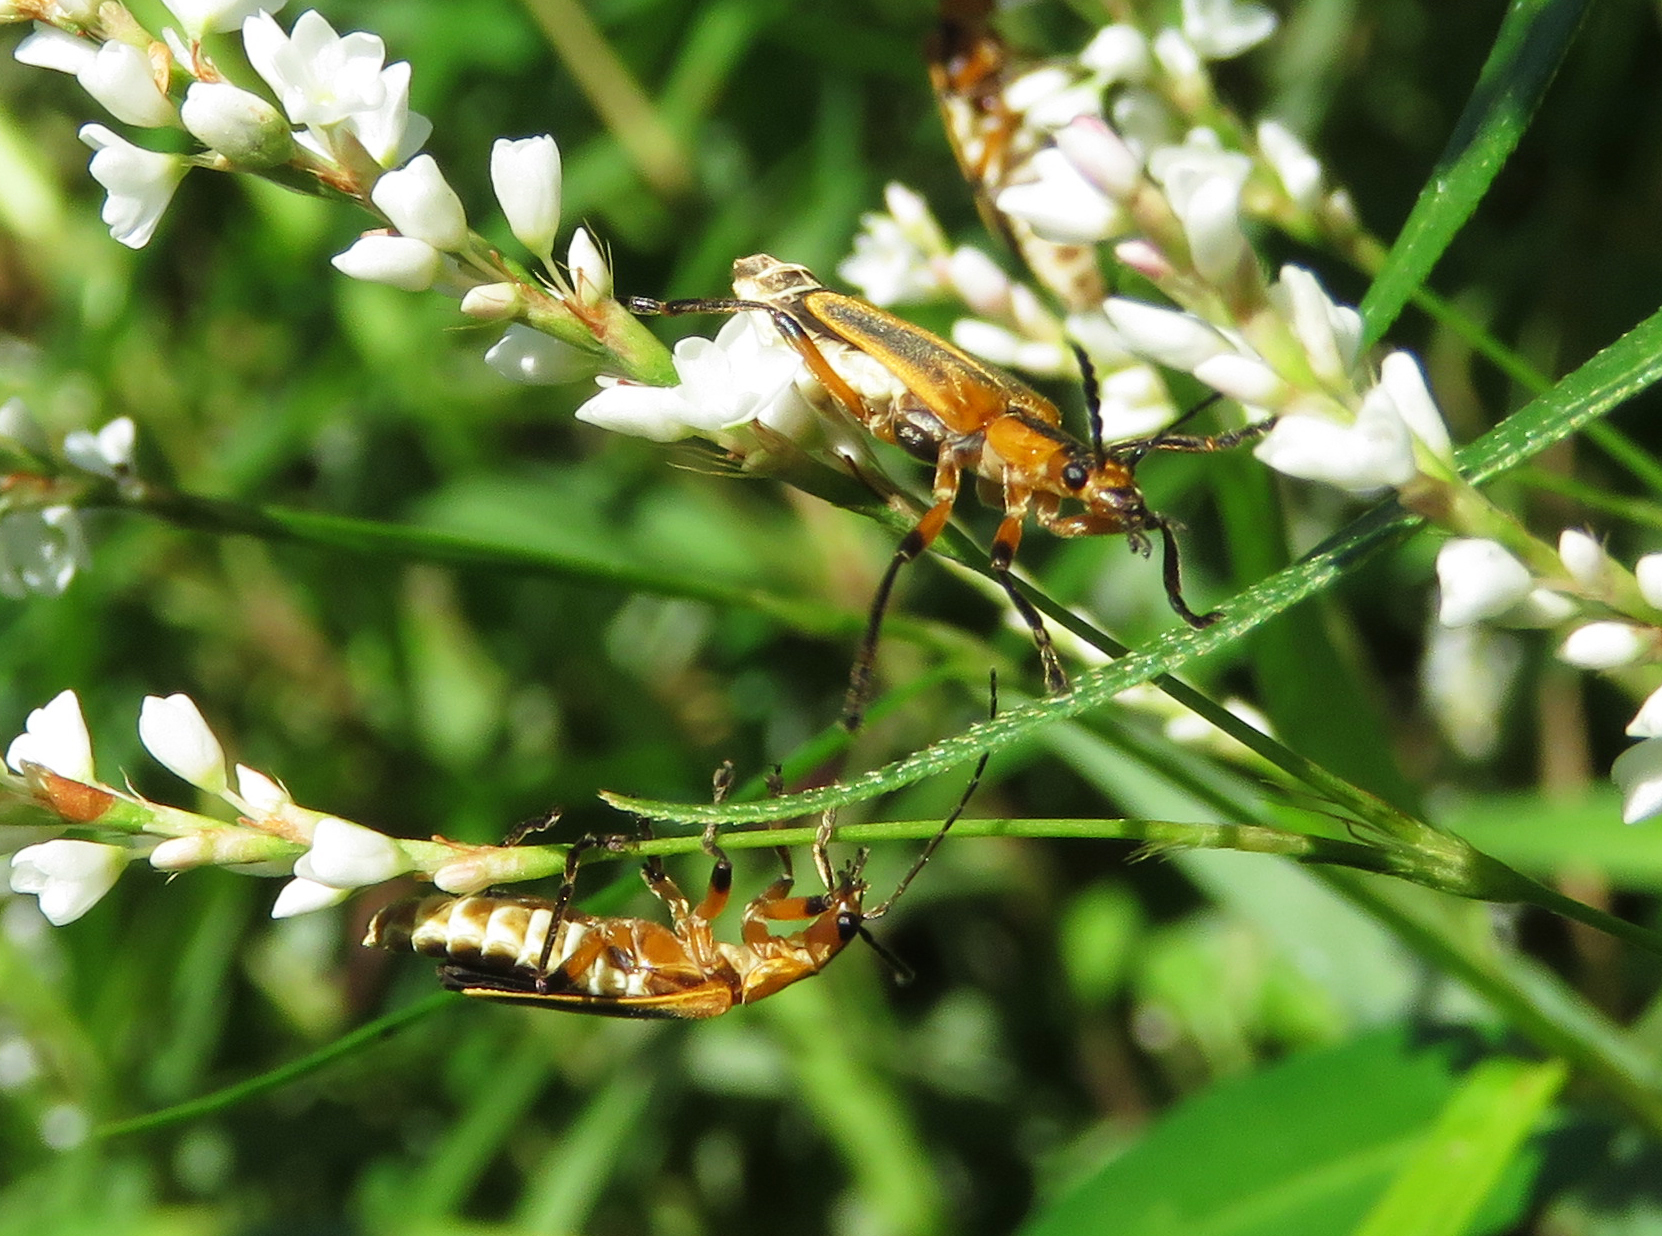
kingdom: Animalia
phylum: Arthropoda
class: Insecta
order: Coleoptera
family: Cantharidae
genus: Chauliognathus
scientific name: Chauliognathus marginatus
